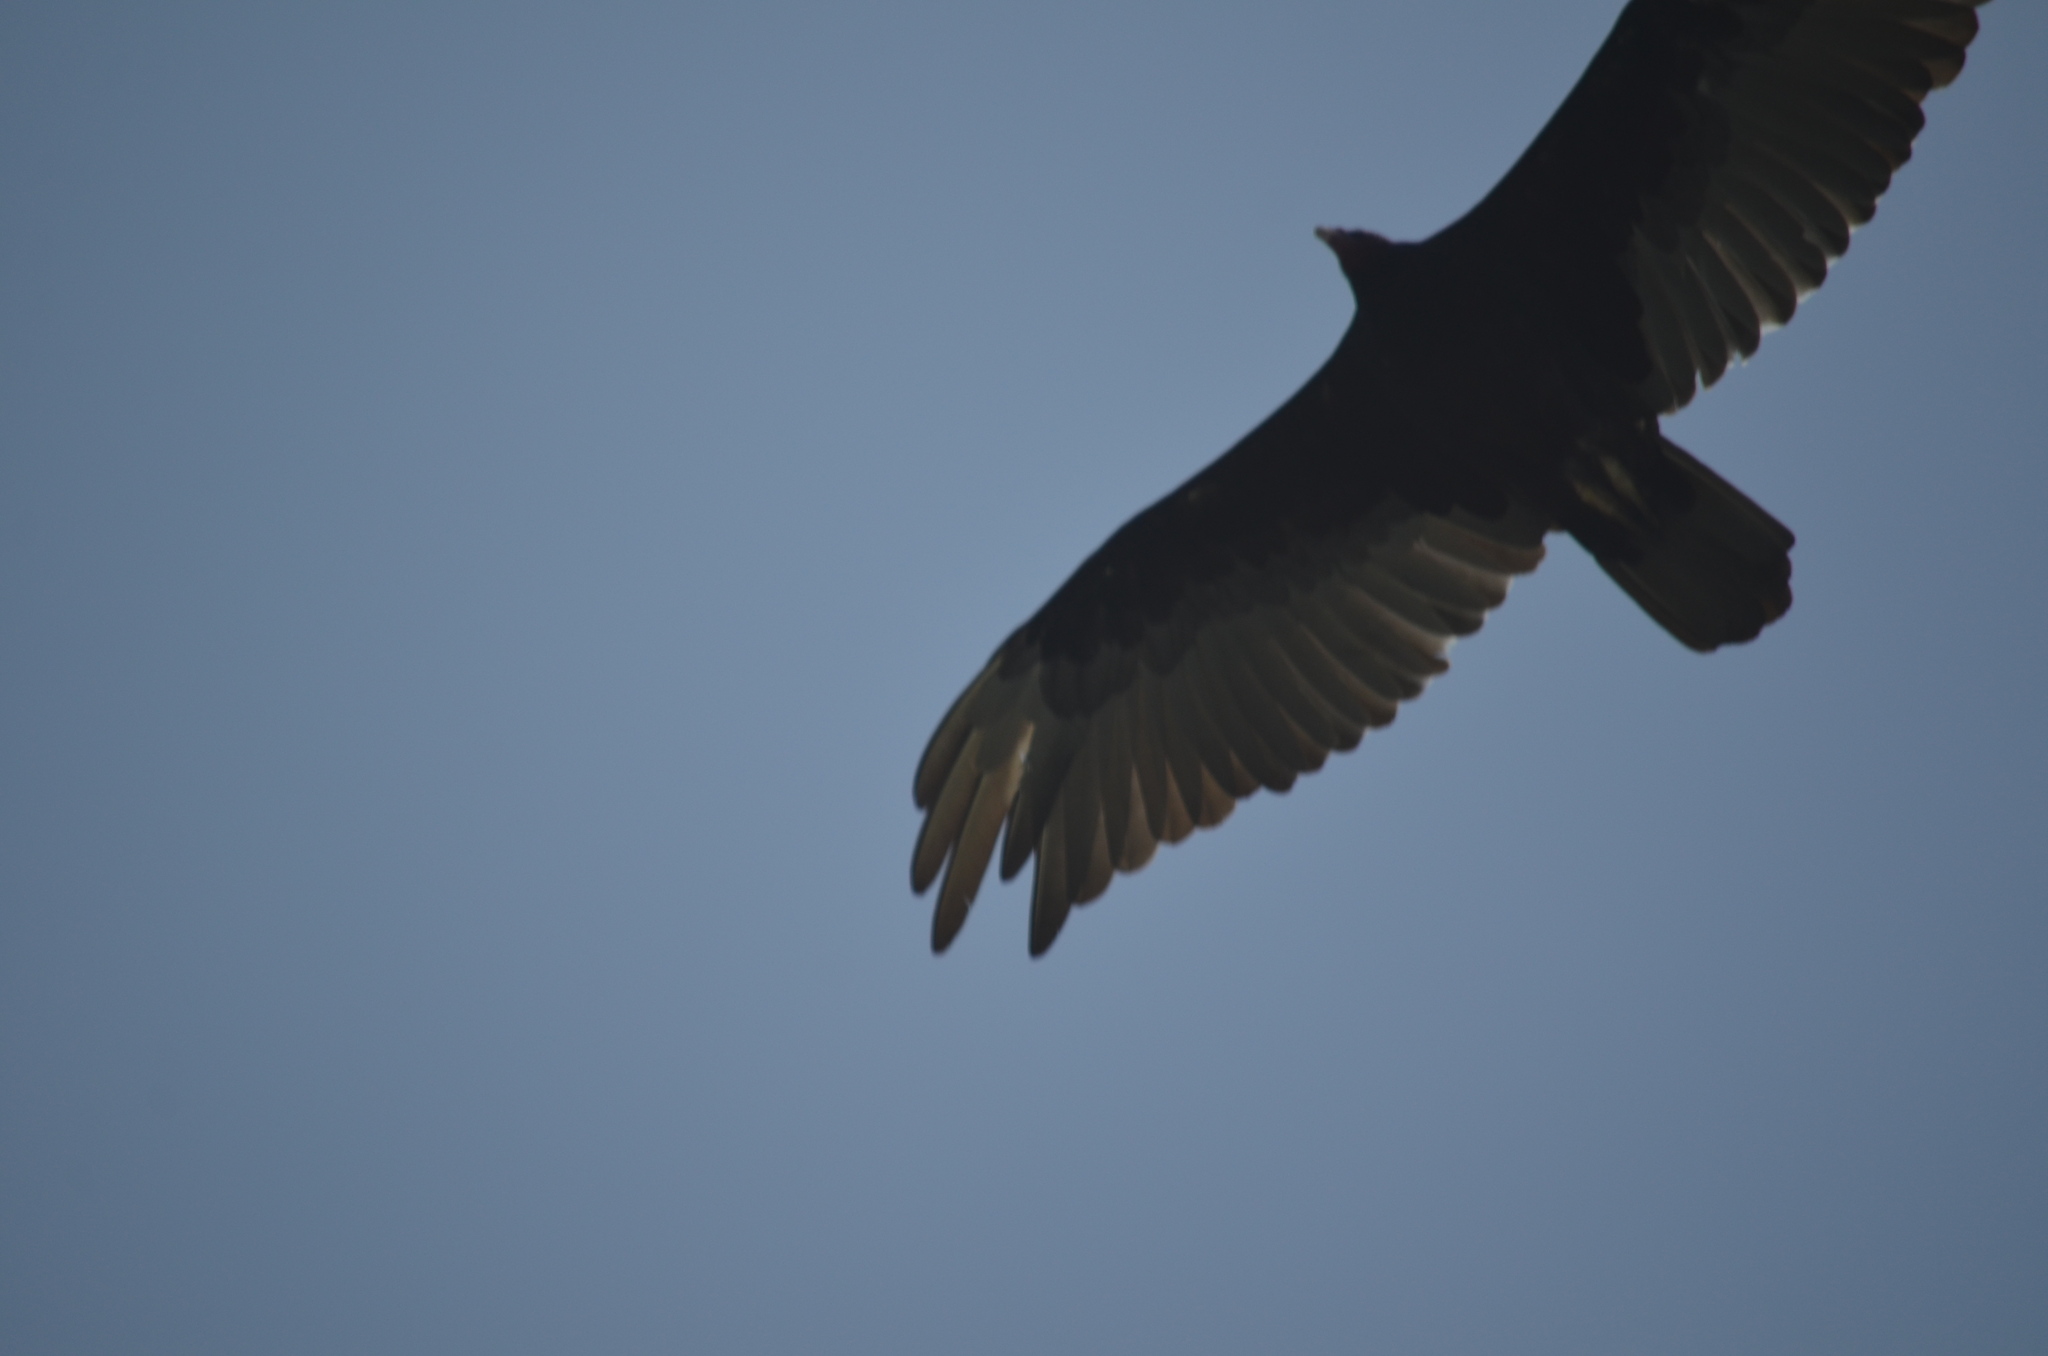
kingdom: Animalia
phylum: Chordata
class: Aves
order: Accipitriformes
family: Cathartidae
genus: Cathartes
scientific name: Cathartes aura
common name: Turkey vulture
